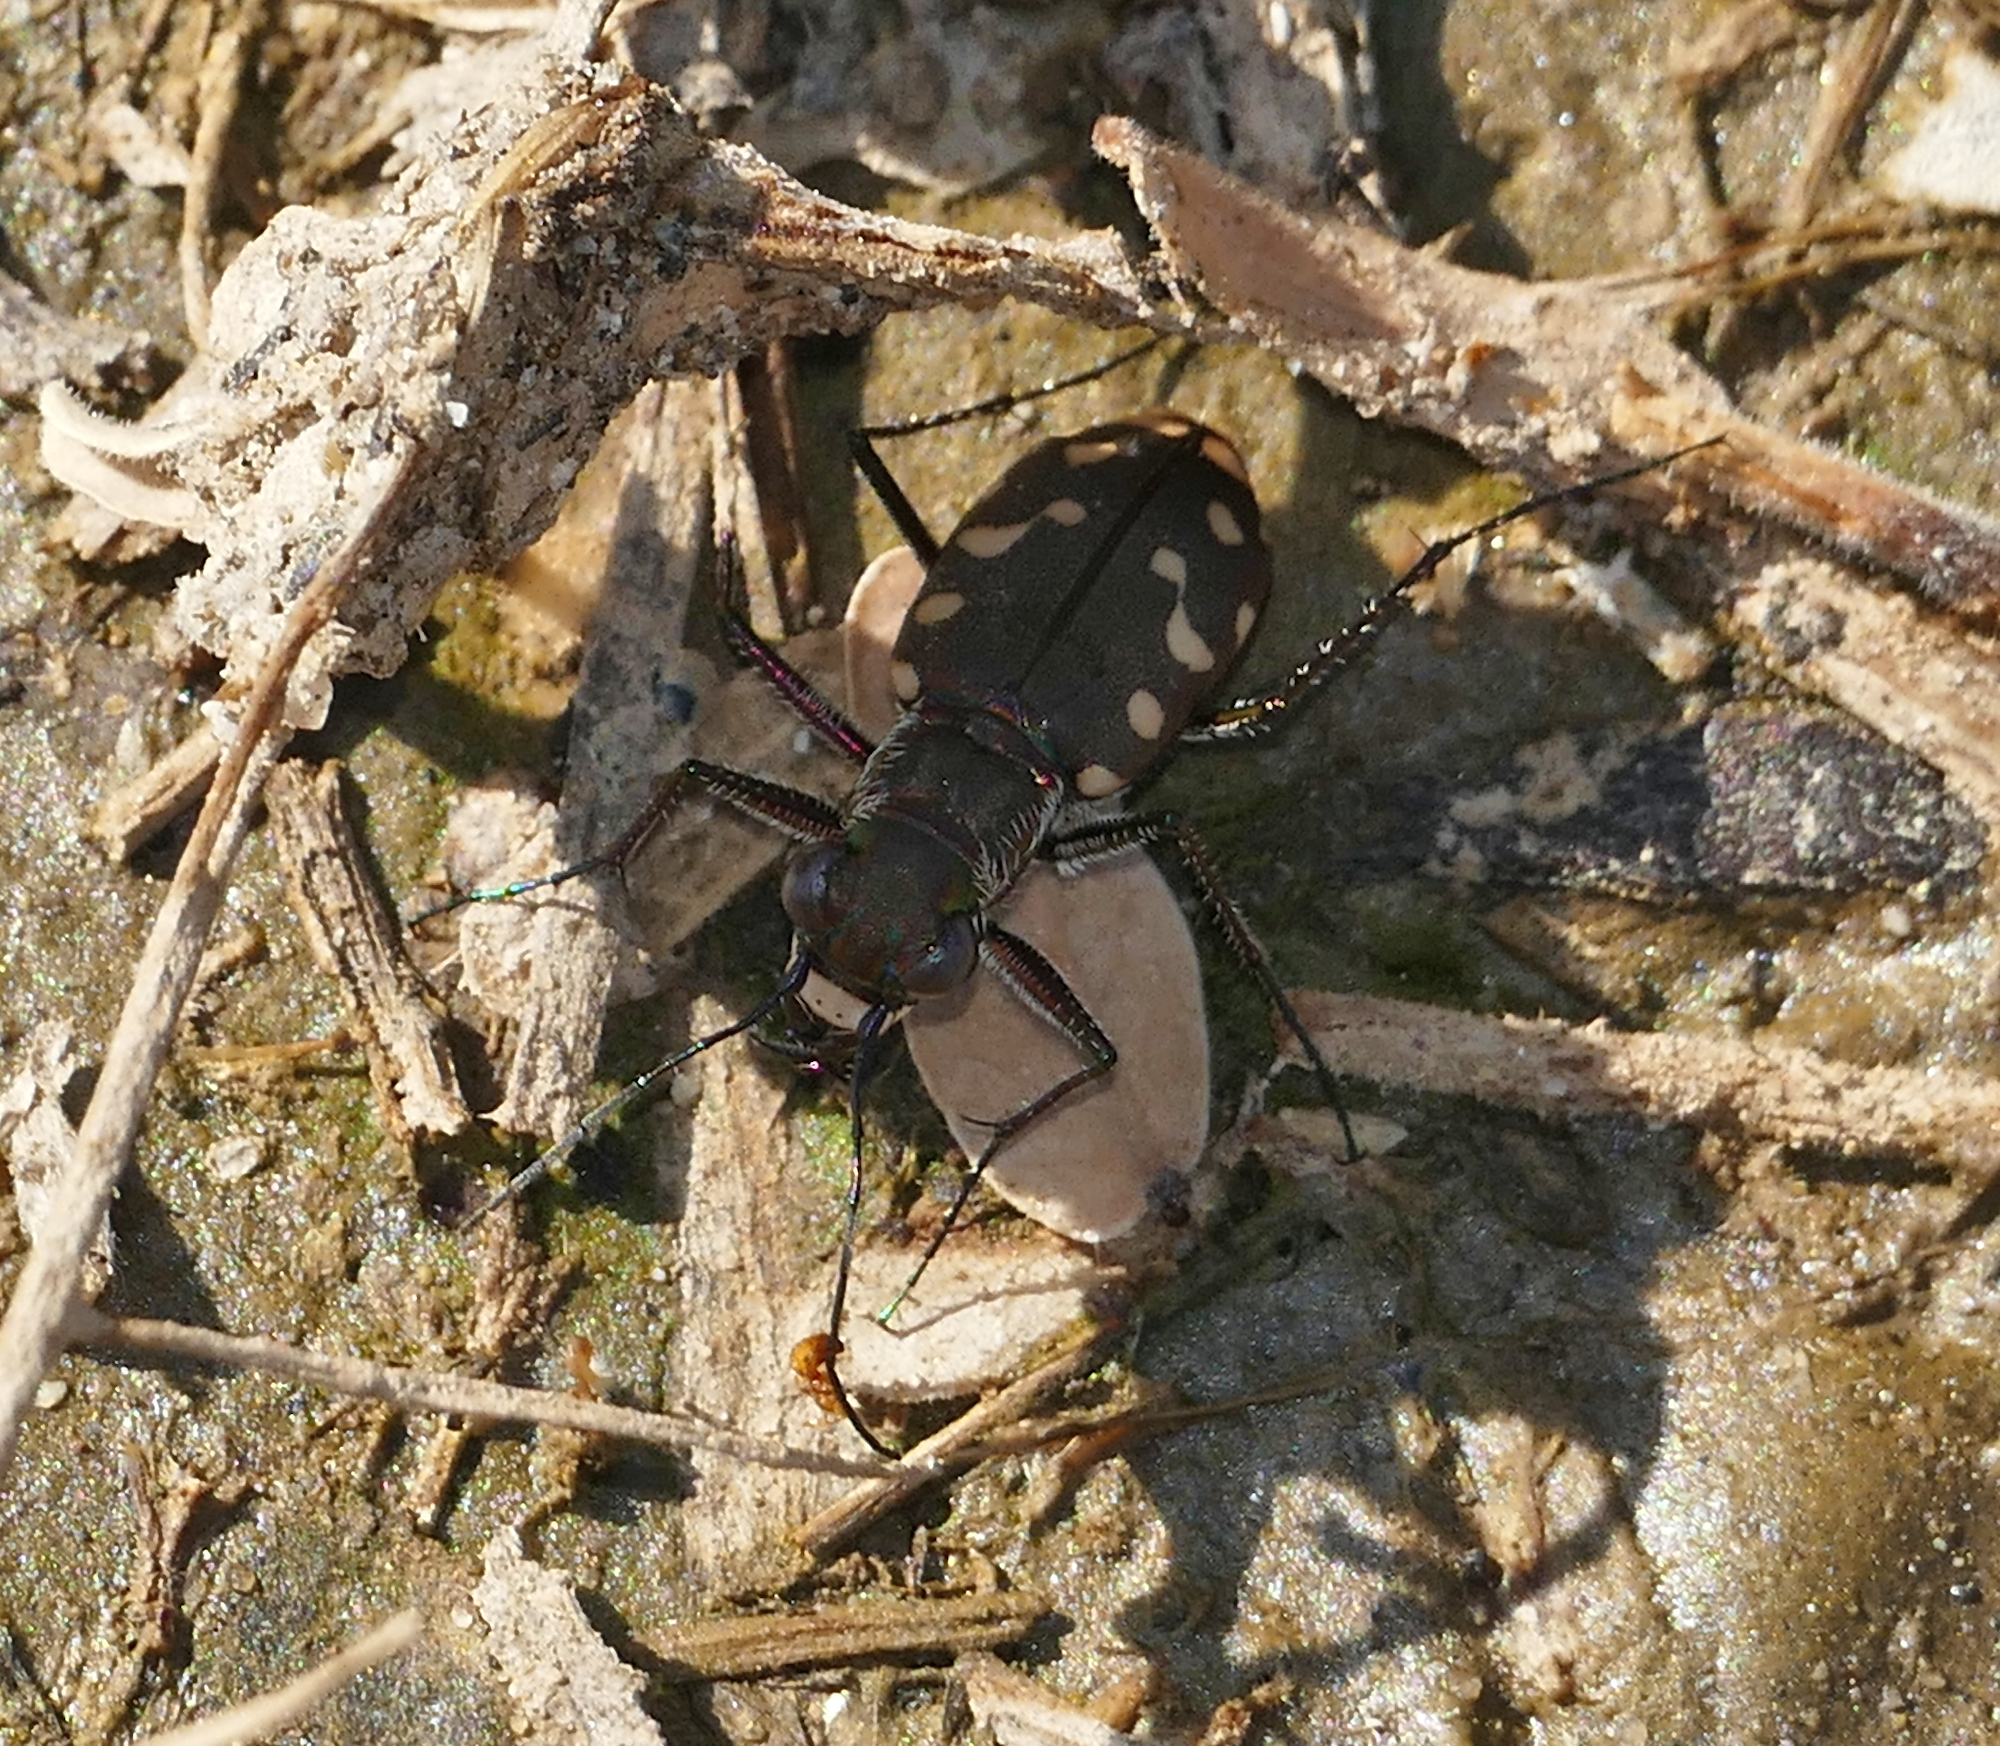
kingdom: Animalia
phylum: Arthropoda
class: Insecta
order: Coleoptera
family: Carabidae
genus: Cicindela
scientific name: Cicindela sedecimpunctata
